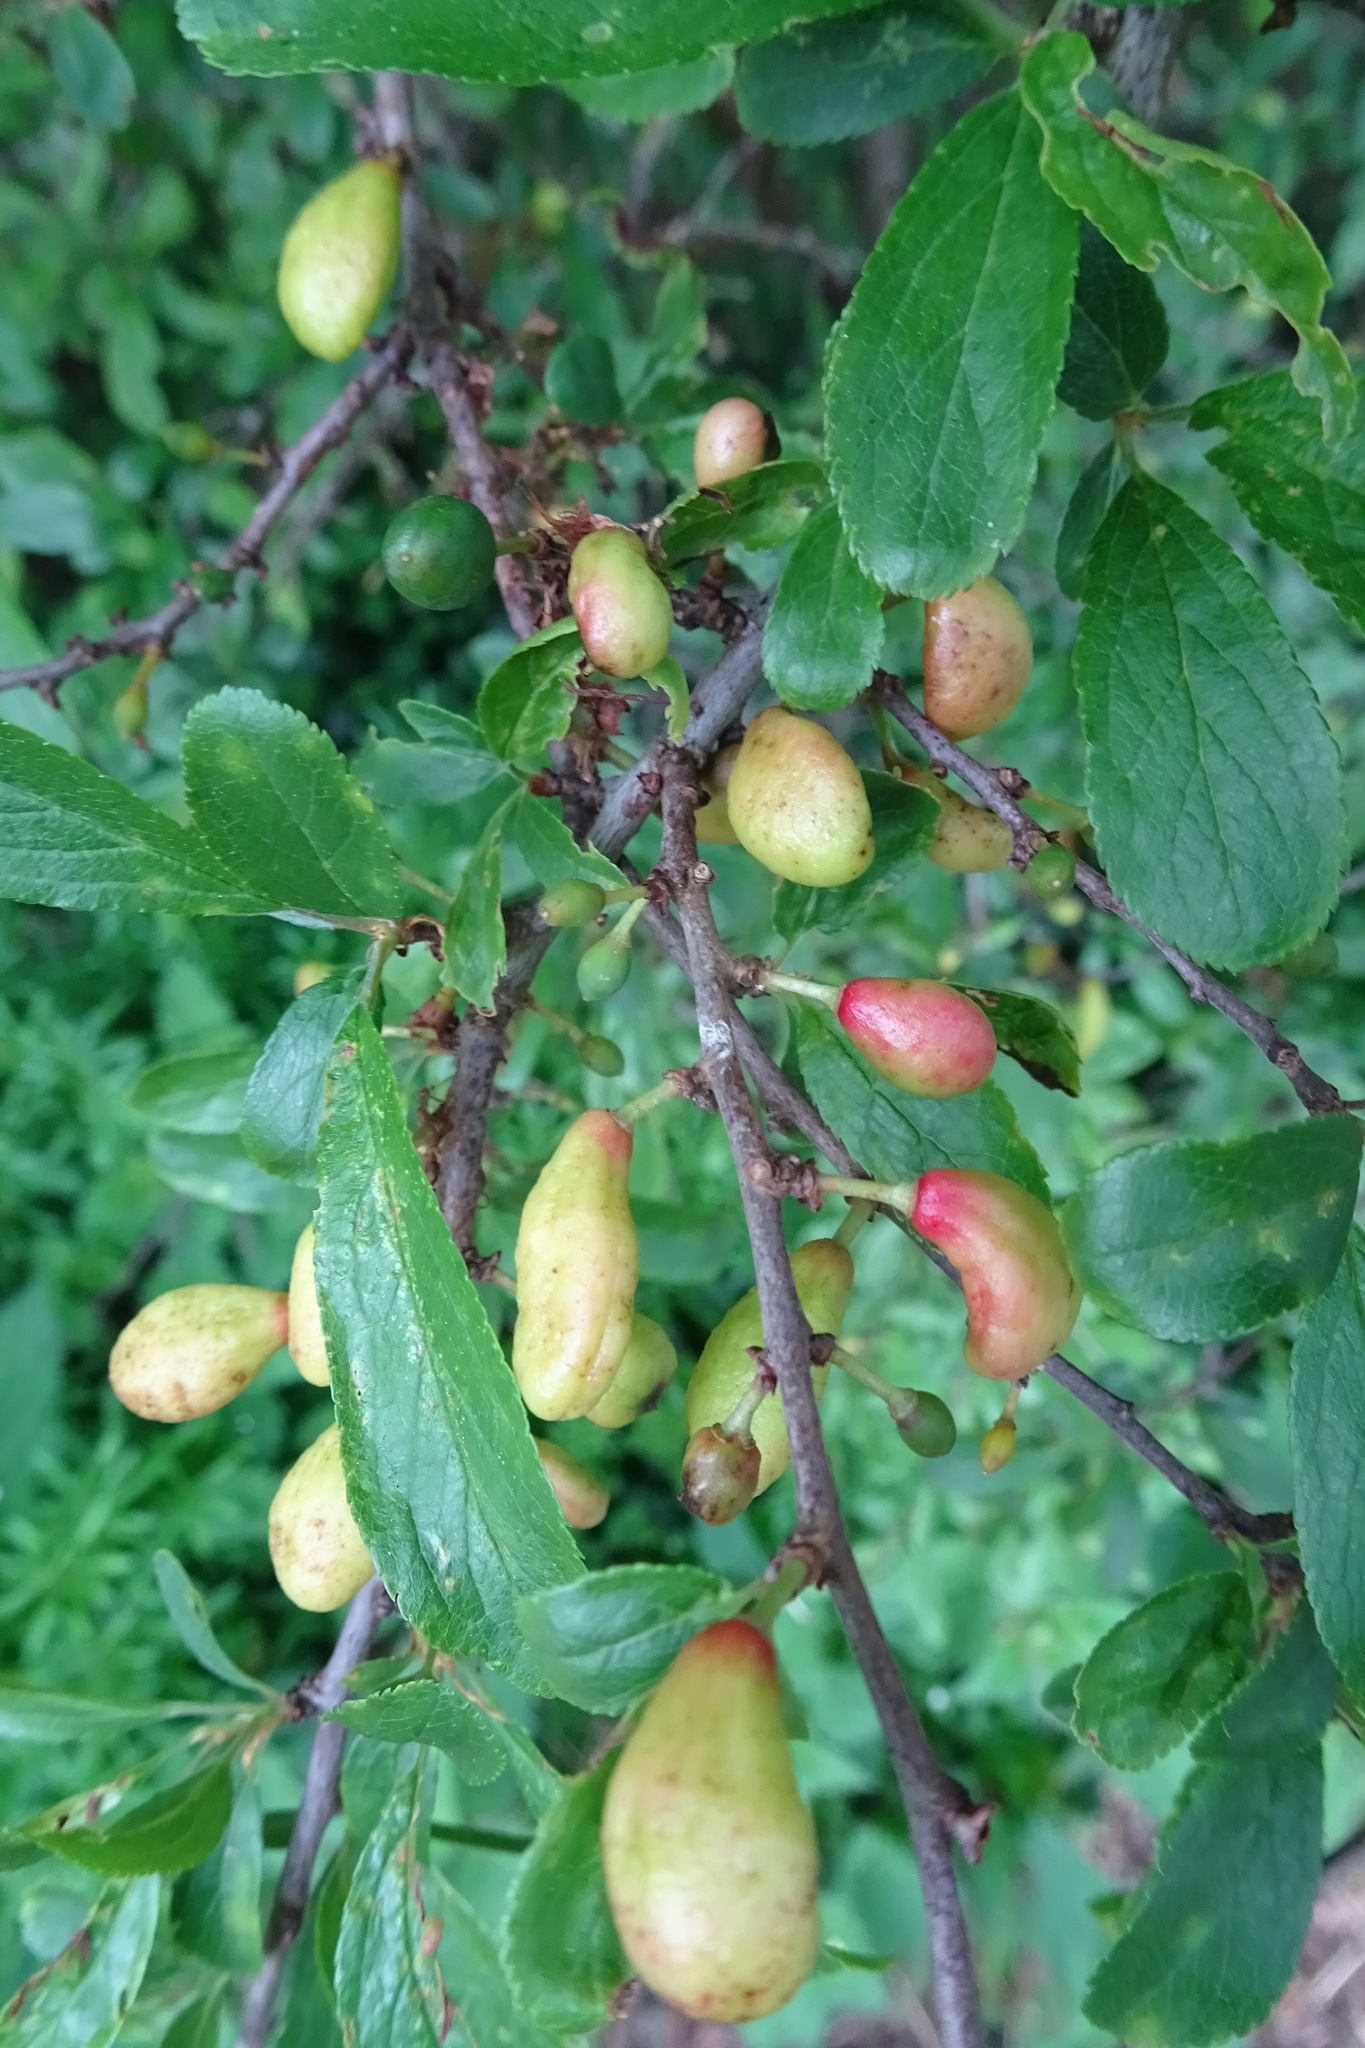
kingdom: Fungi
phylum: Ascomycota
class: Taphrinomycetes
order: Taphrinales
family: Taphrinaceae
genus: Taphrina
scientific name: Taphrina pruni
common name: Pocket plum
